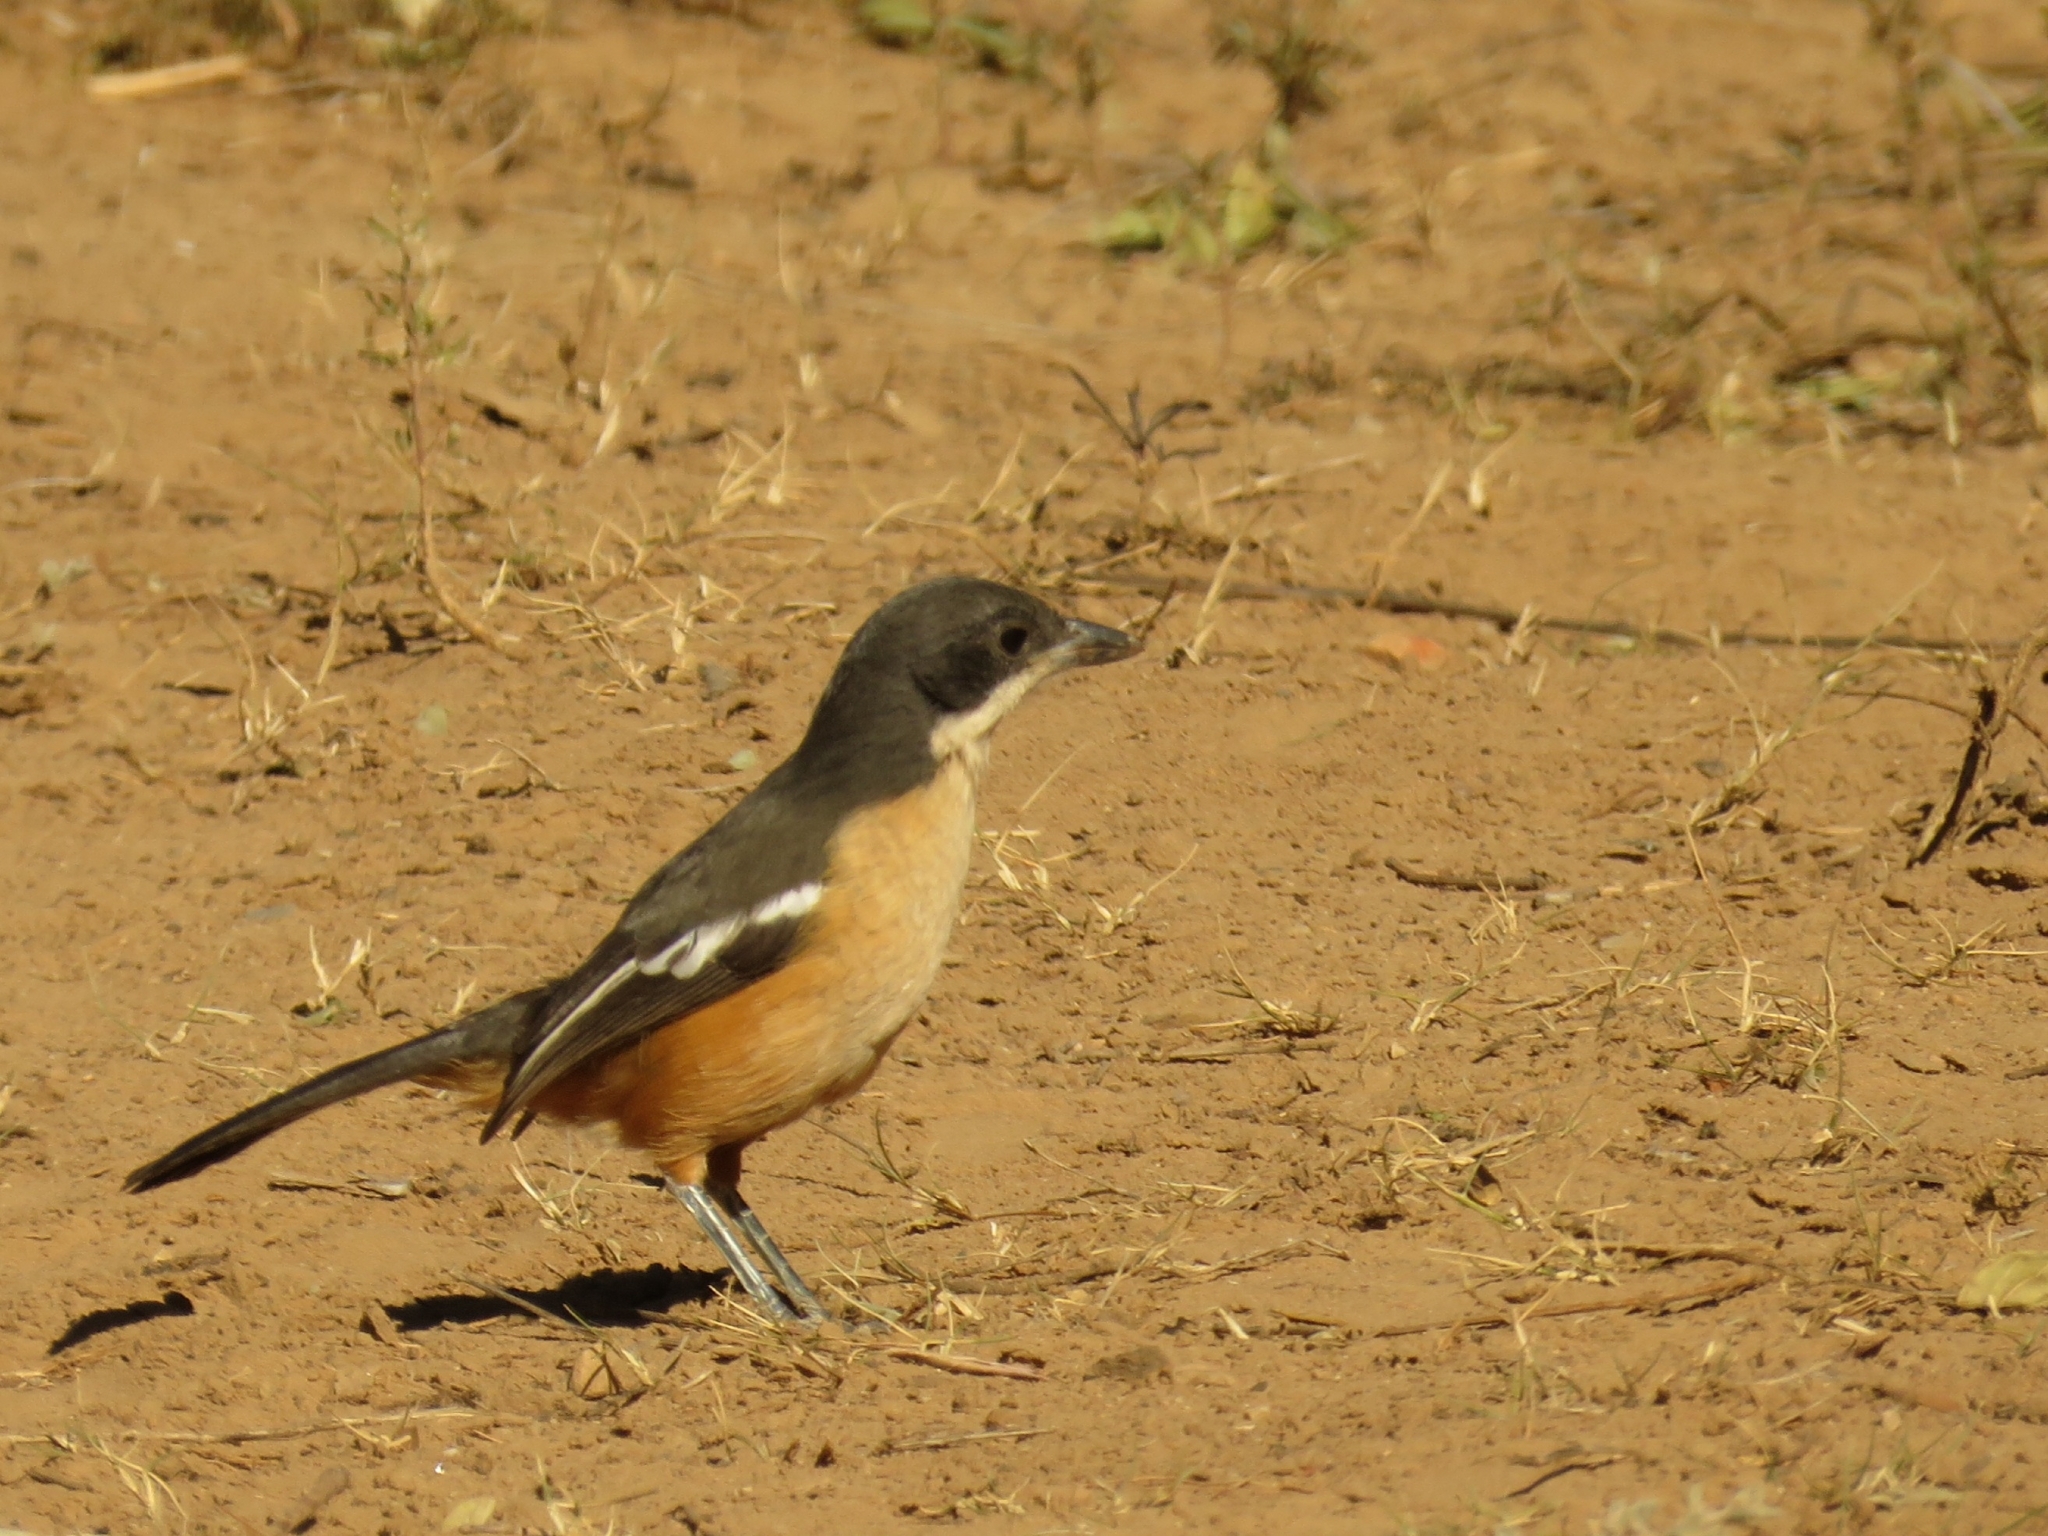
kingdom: Animalia
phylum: Chordata
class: Aves
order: Passeriformes
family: Malaconotidae
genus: Laniarius
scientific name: Laniarius ferrugineus
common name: Southern boubou
